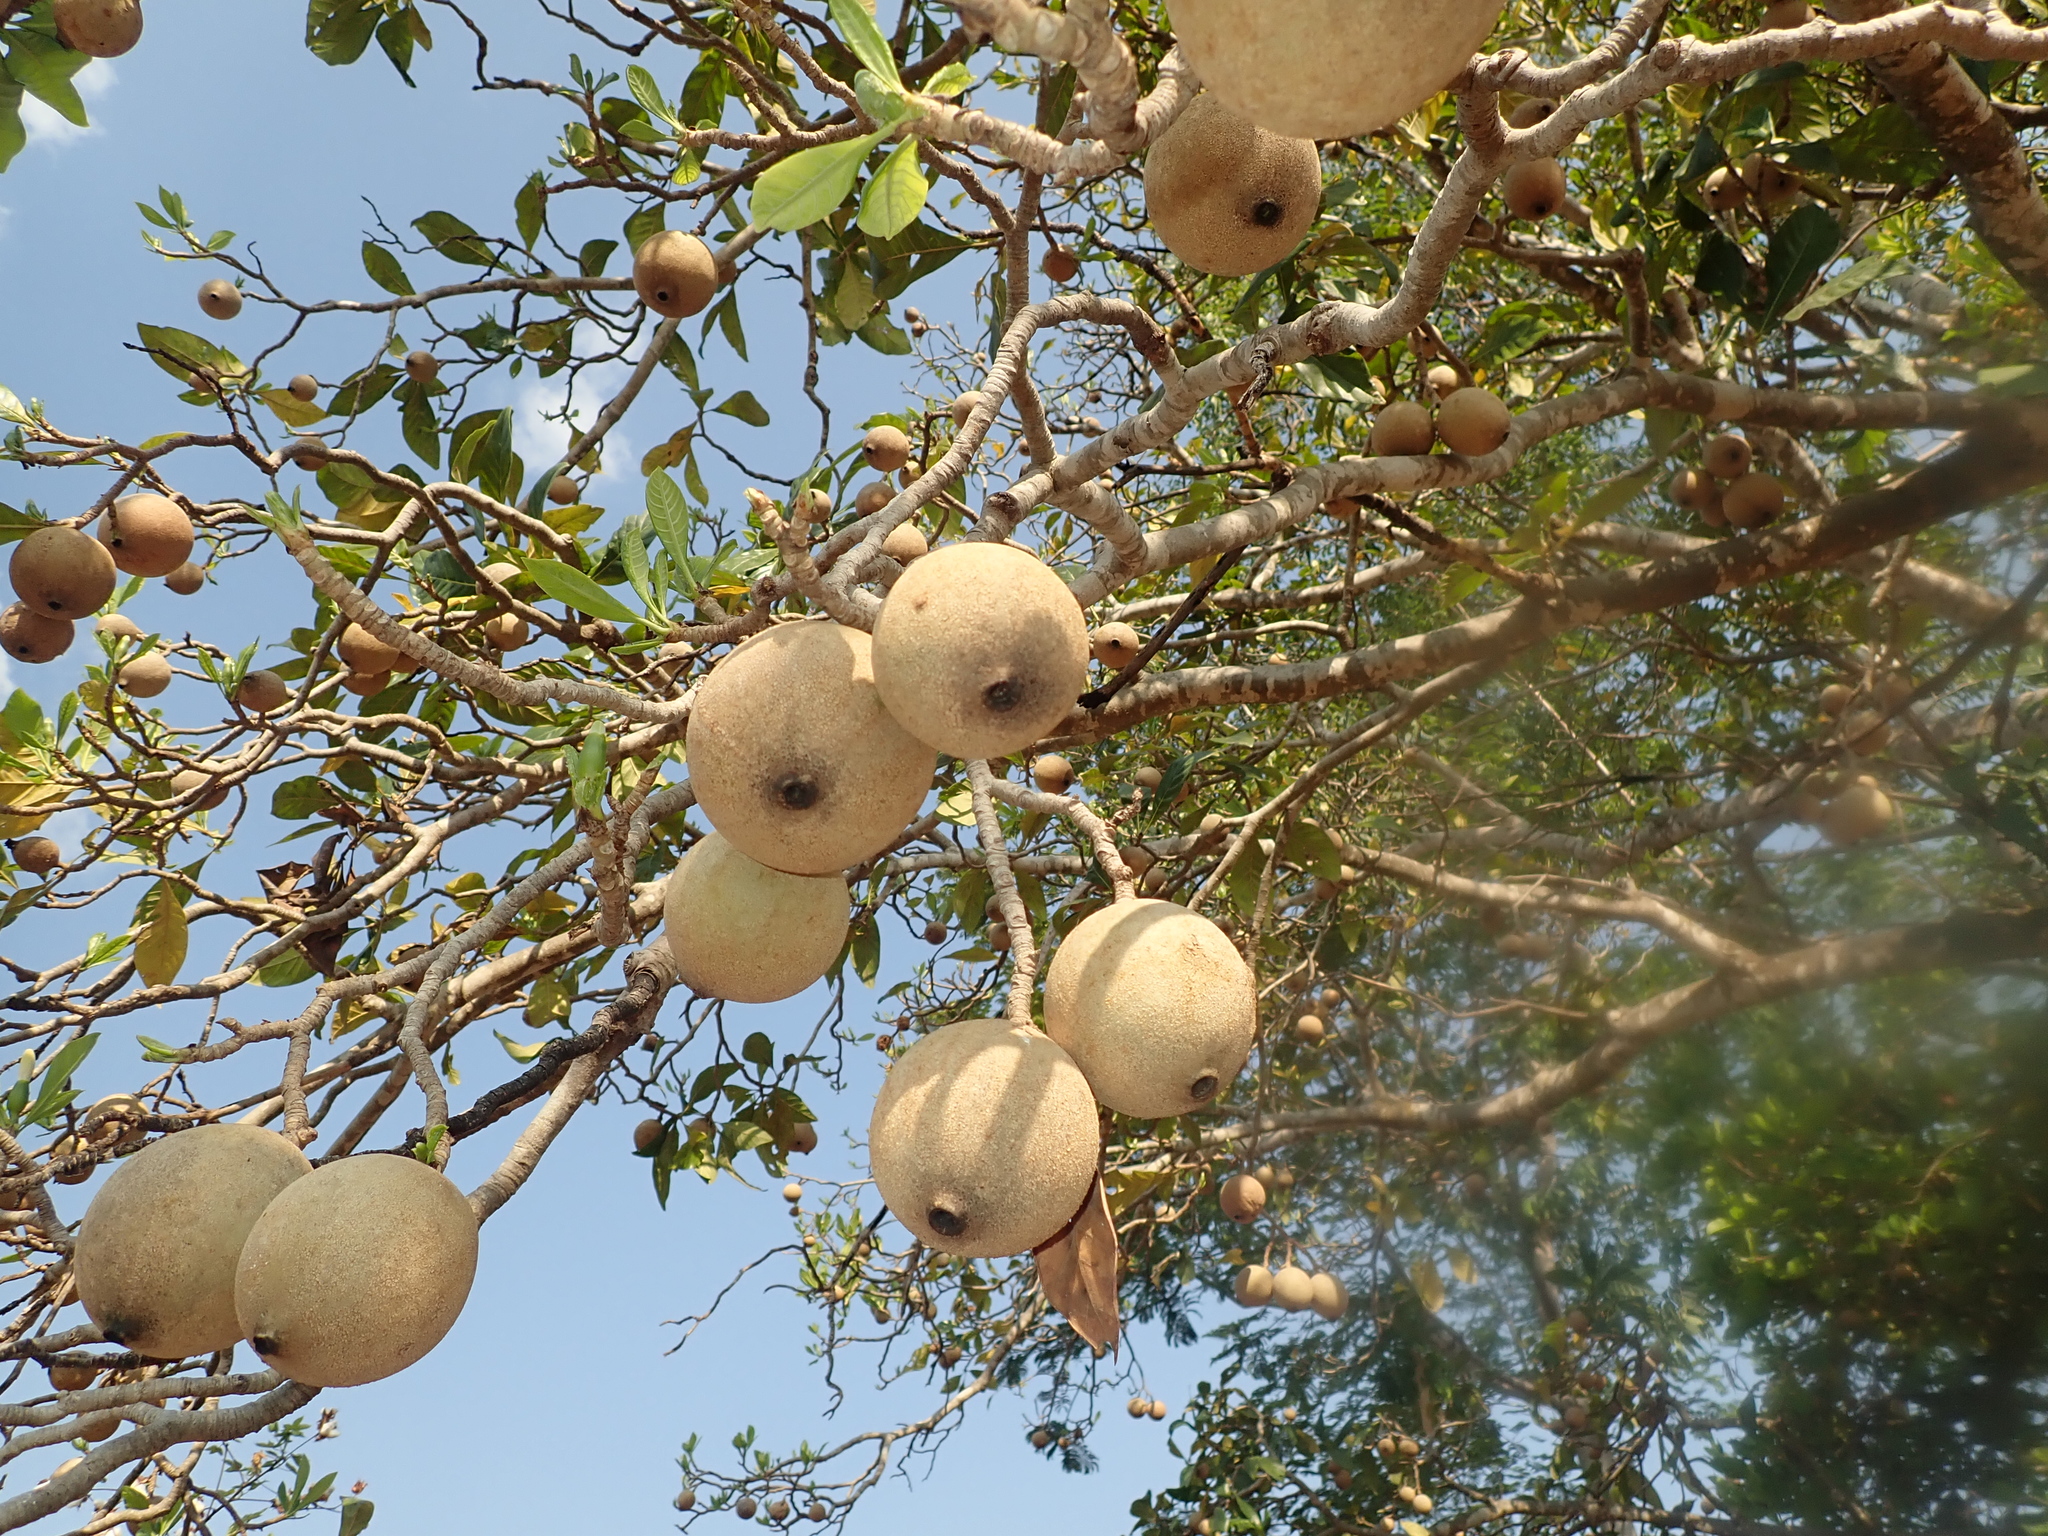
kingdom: Plantae
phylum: Tracheophyta
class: Magnoliopsida
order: Gentianales
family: Rubiaceae
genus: Genipa
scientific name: Genipa americana
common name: Genipap
